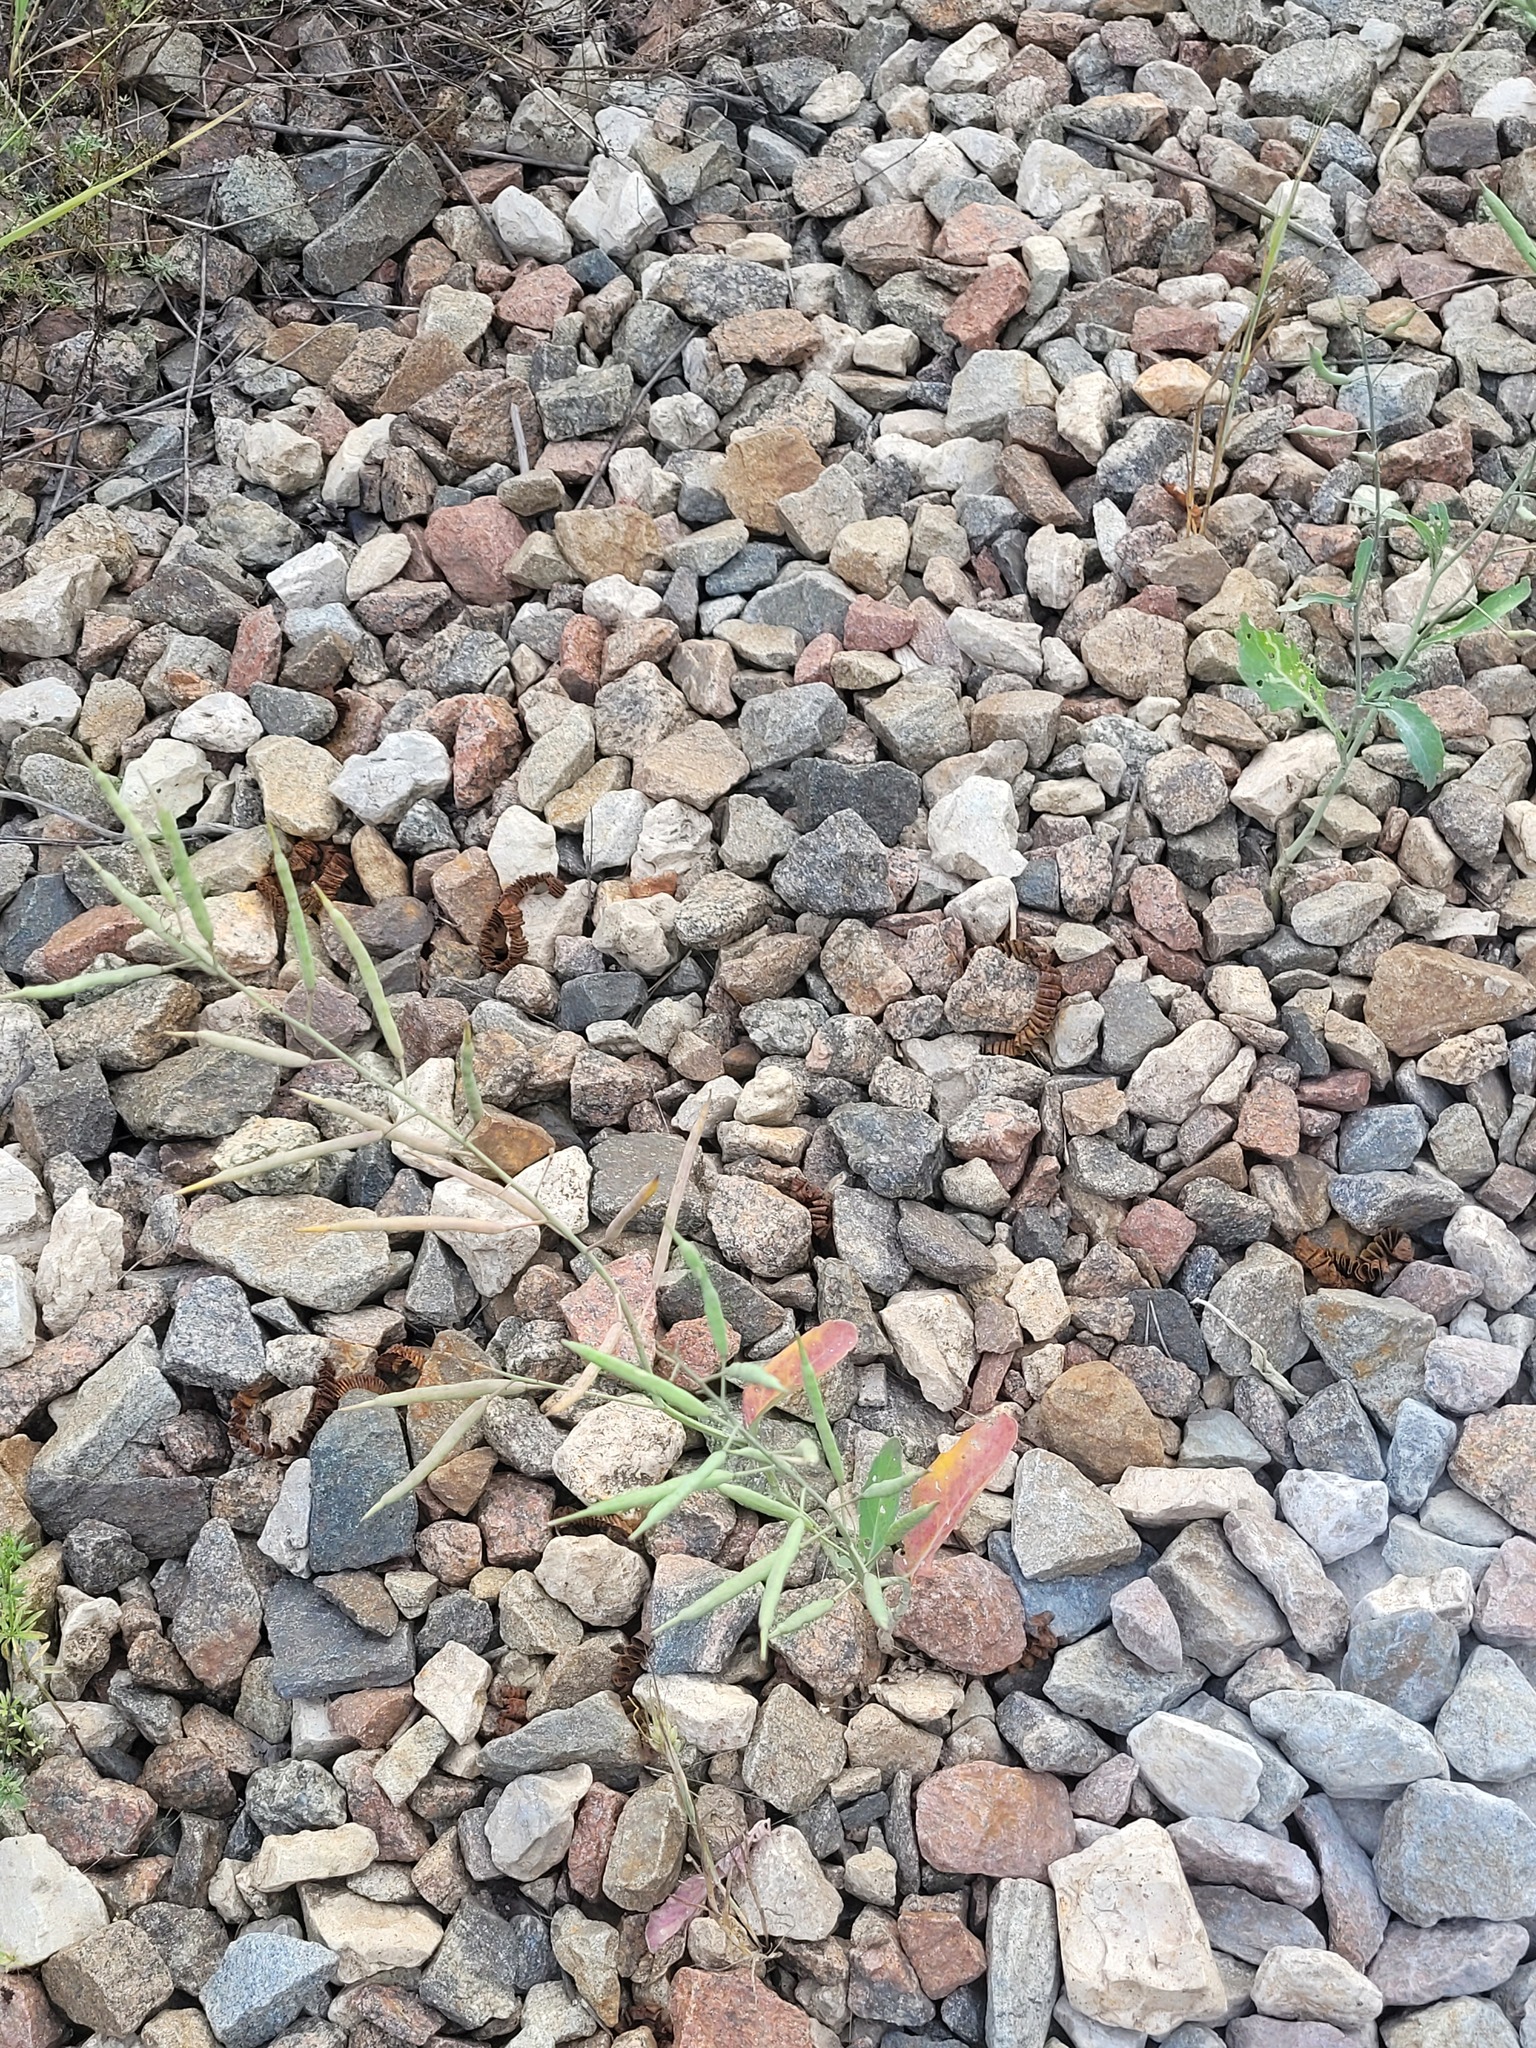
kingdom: Plantae
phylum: Tracheophyta
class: Magnoliopsida
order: Brassicales
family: Brassicaceae
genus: Brassica
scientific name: Brassica napus
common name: Rape
